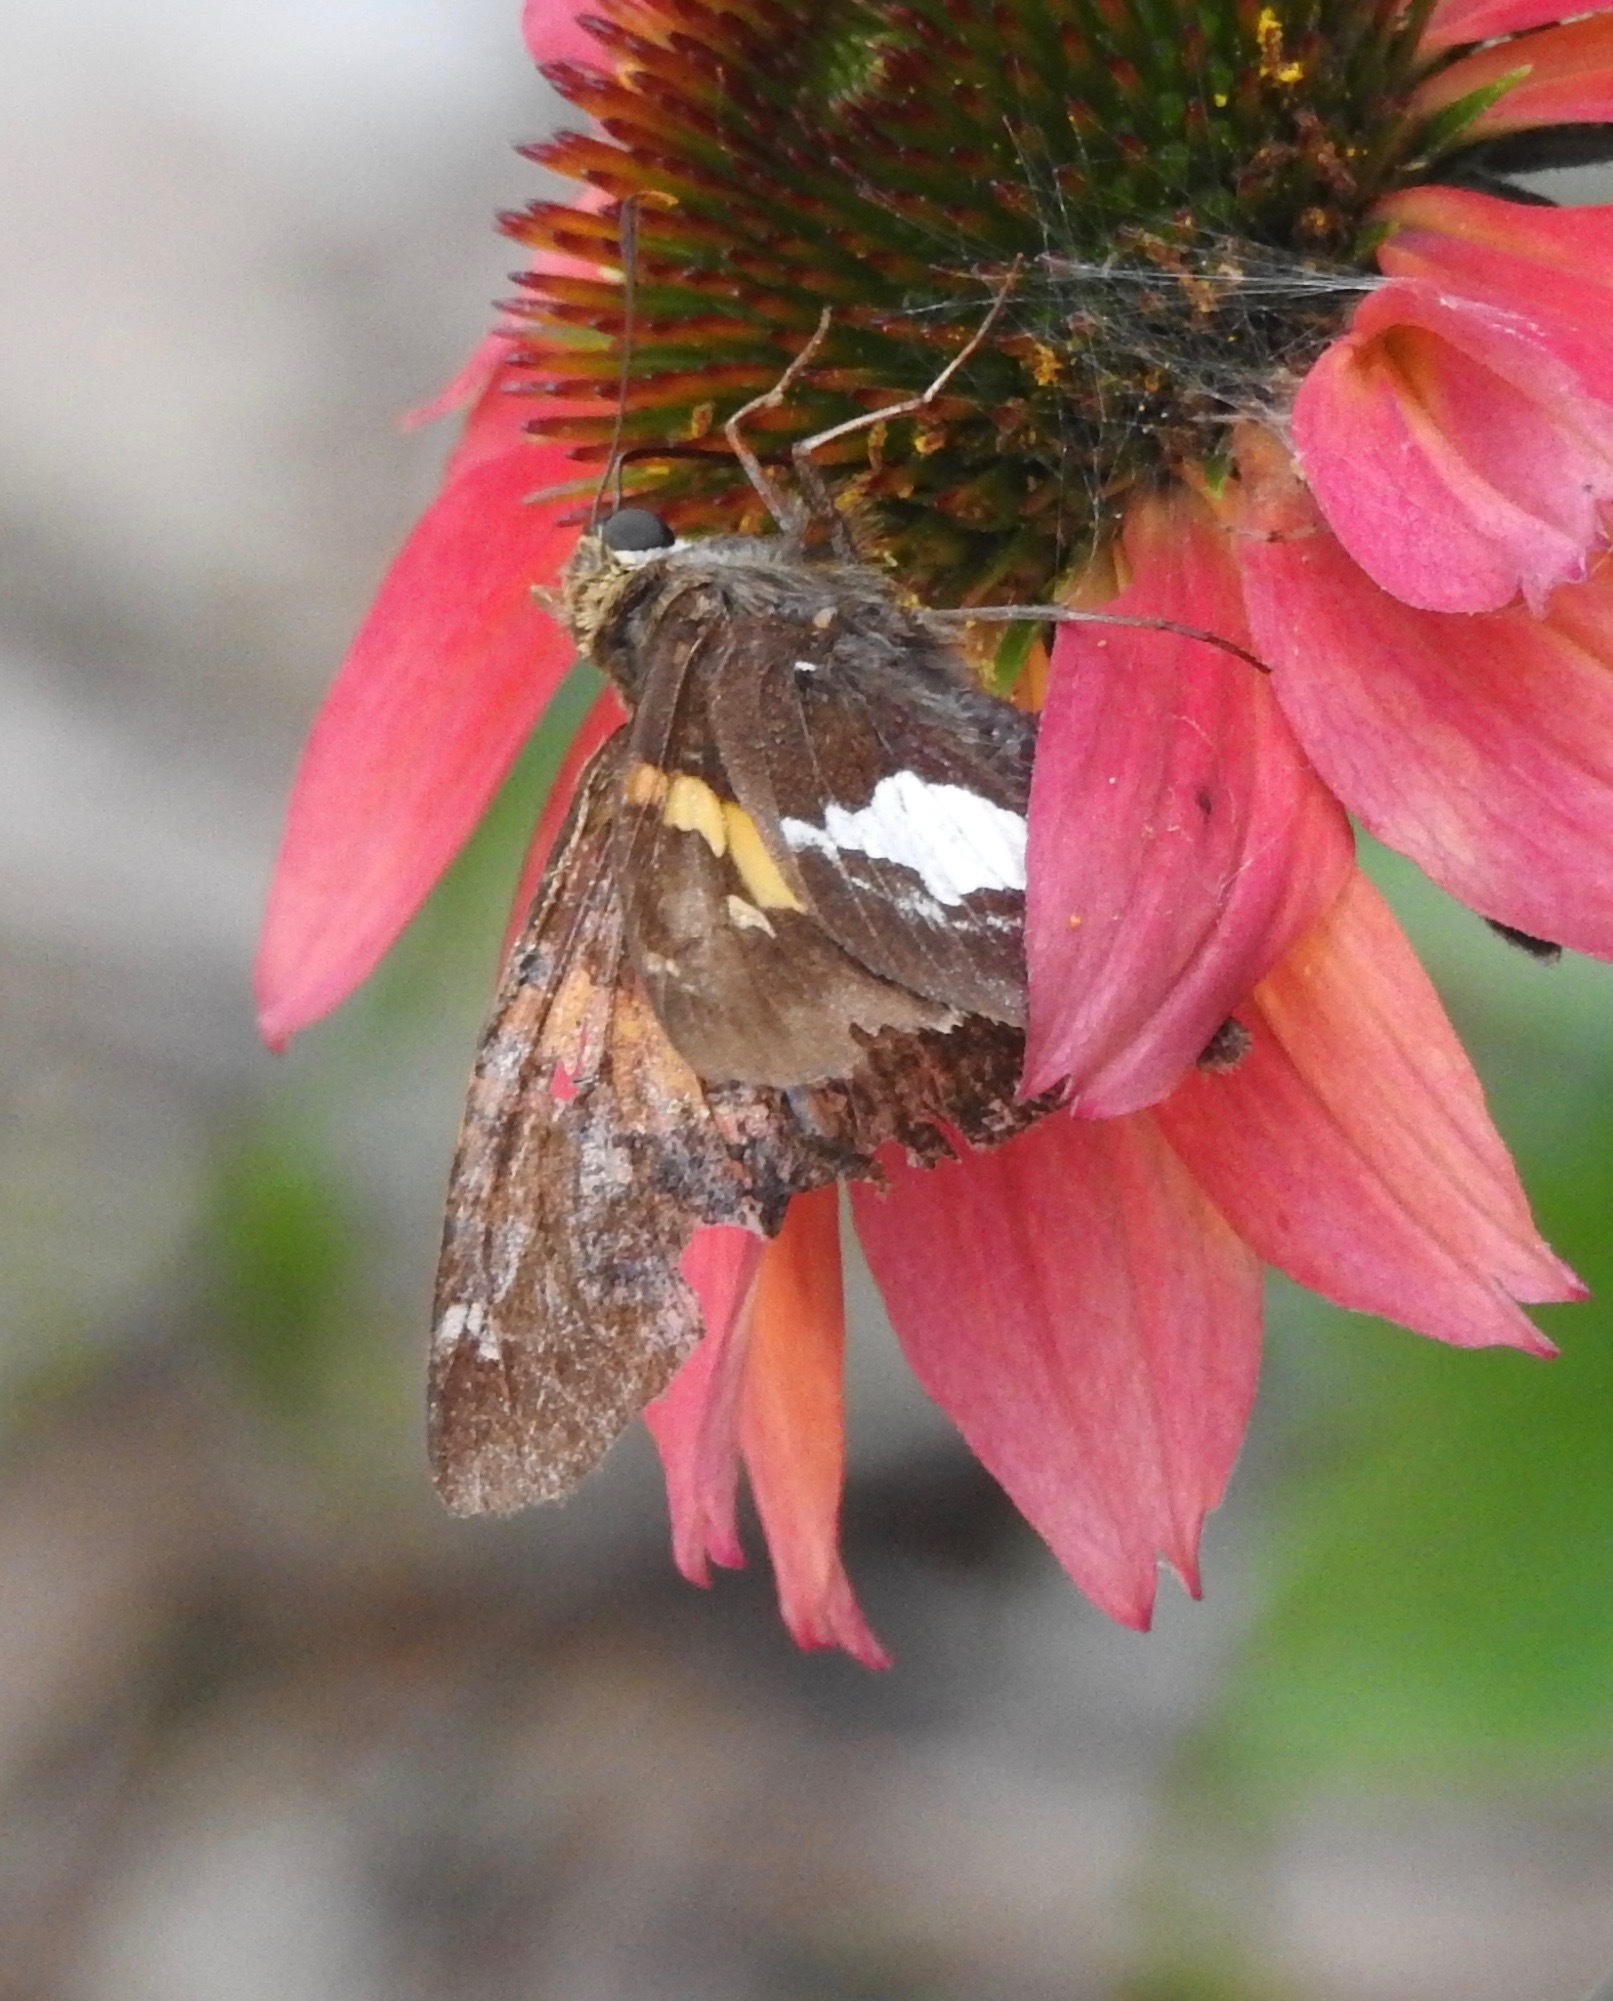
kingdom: Animalia
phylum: Arthropoda
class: Insecta
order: Lepidoptera
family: Hesperiidae
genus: Epargyreus
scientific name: Epargyreus clarus
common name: Silver-spotted skipper
